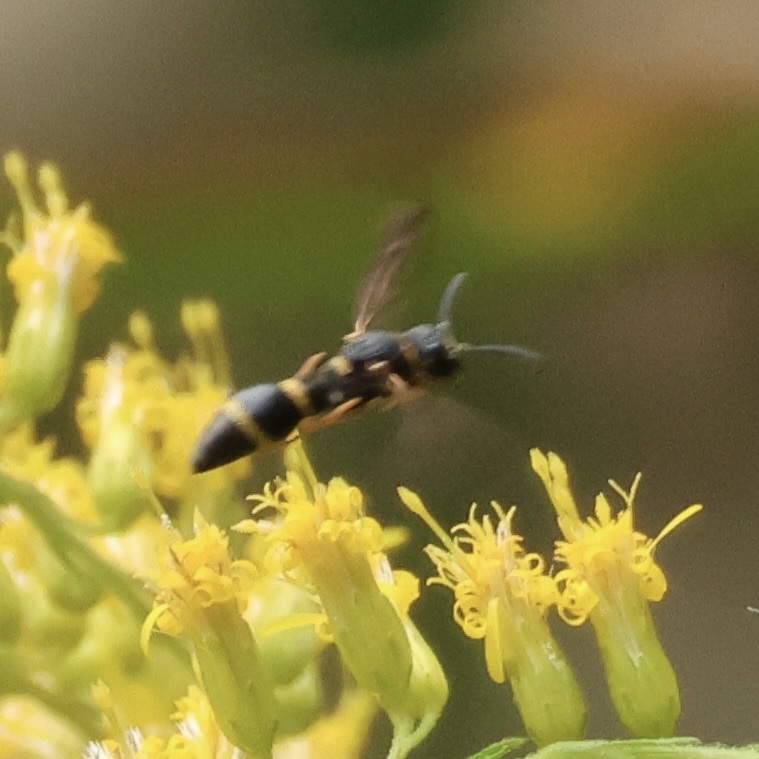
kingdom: Animalia
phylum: Arthropoda
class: Insecta
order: Hymenoptera
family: Eumenidae
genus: Parancistrocerus
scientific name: Parancistrocerus perennis
